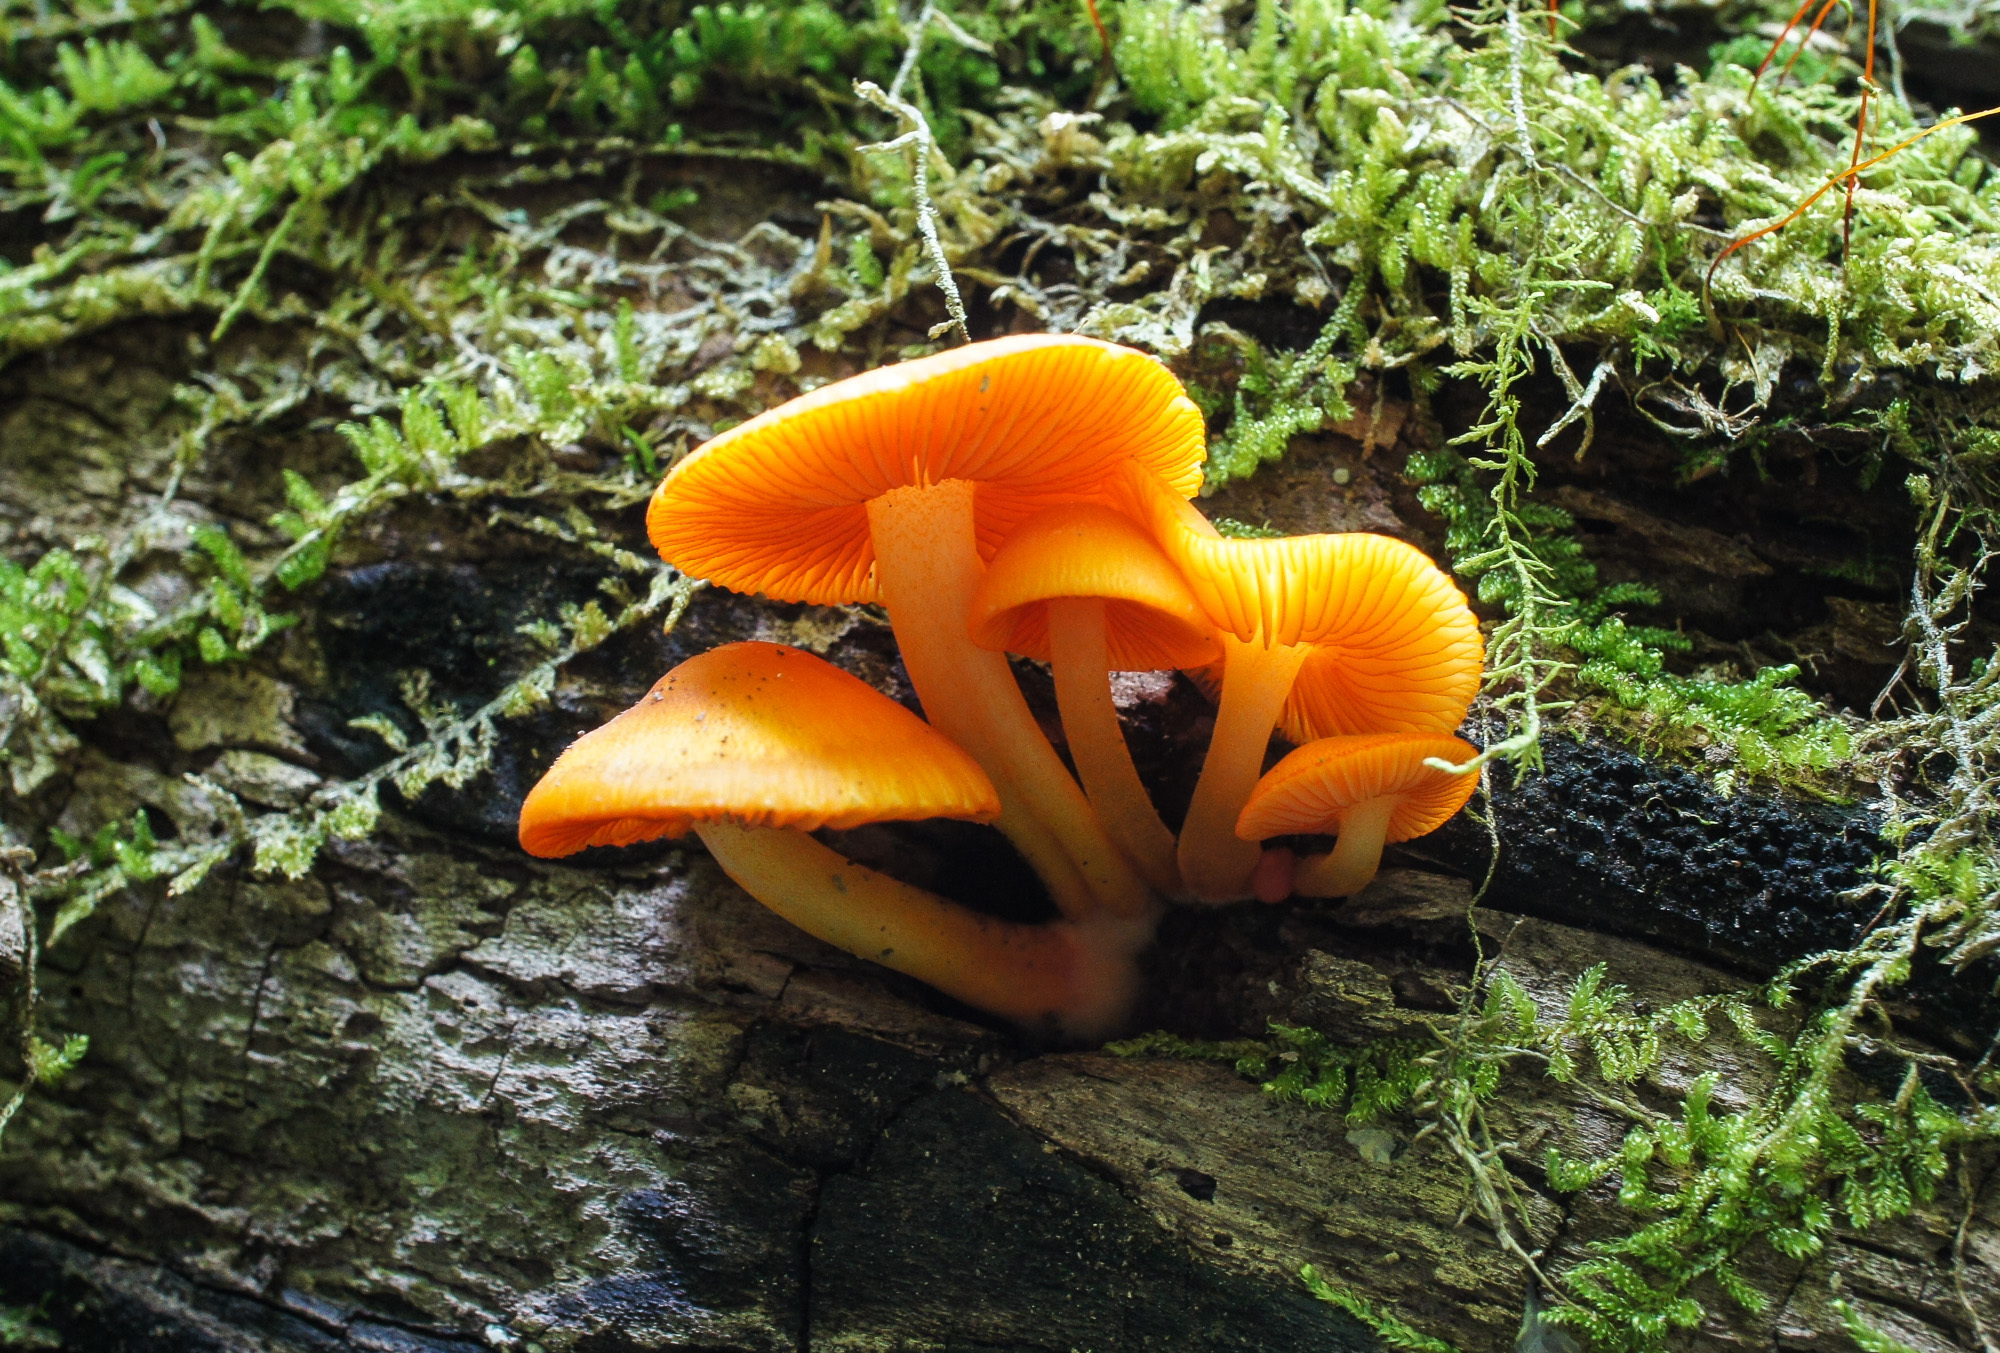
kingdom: Fungi
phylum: Basidiomycota
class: Agaricomycetes
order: Agaricales
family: Mycenaceae
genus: Mycena
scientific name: Mycena leaiana
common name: Orange mycena
